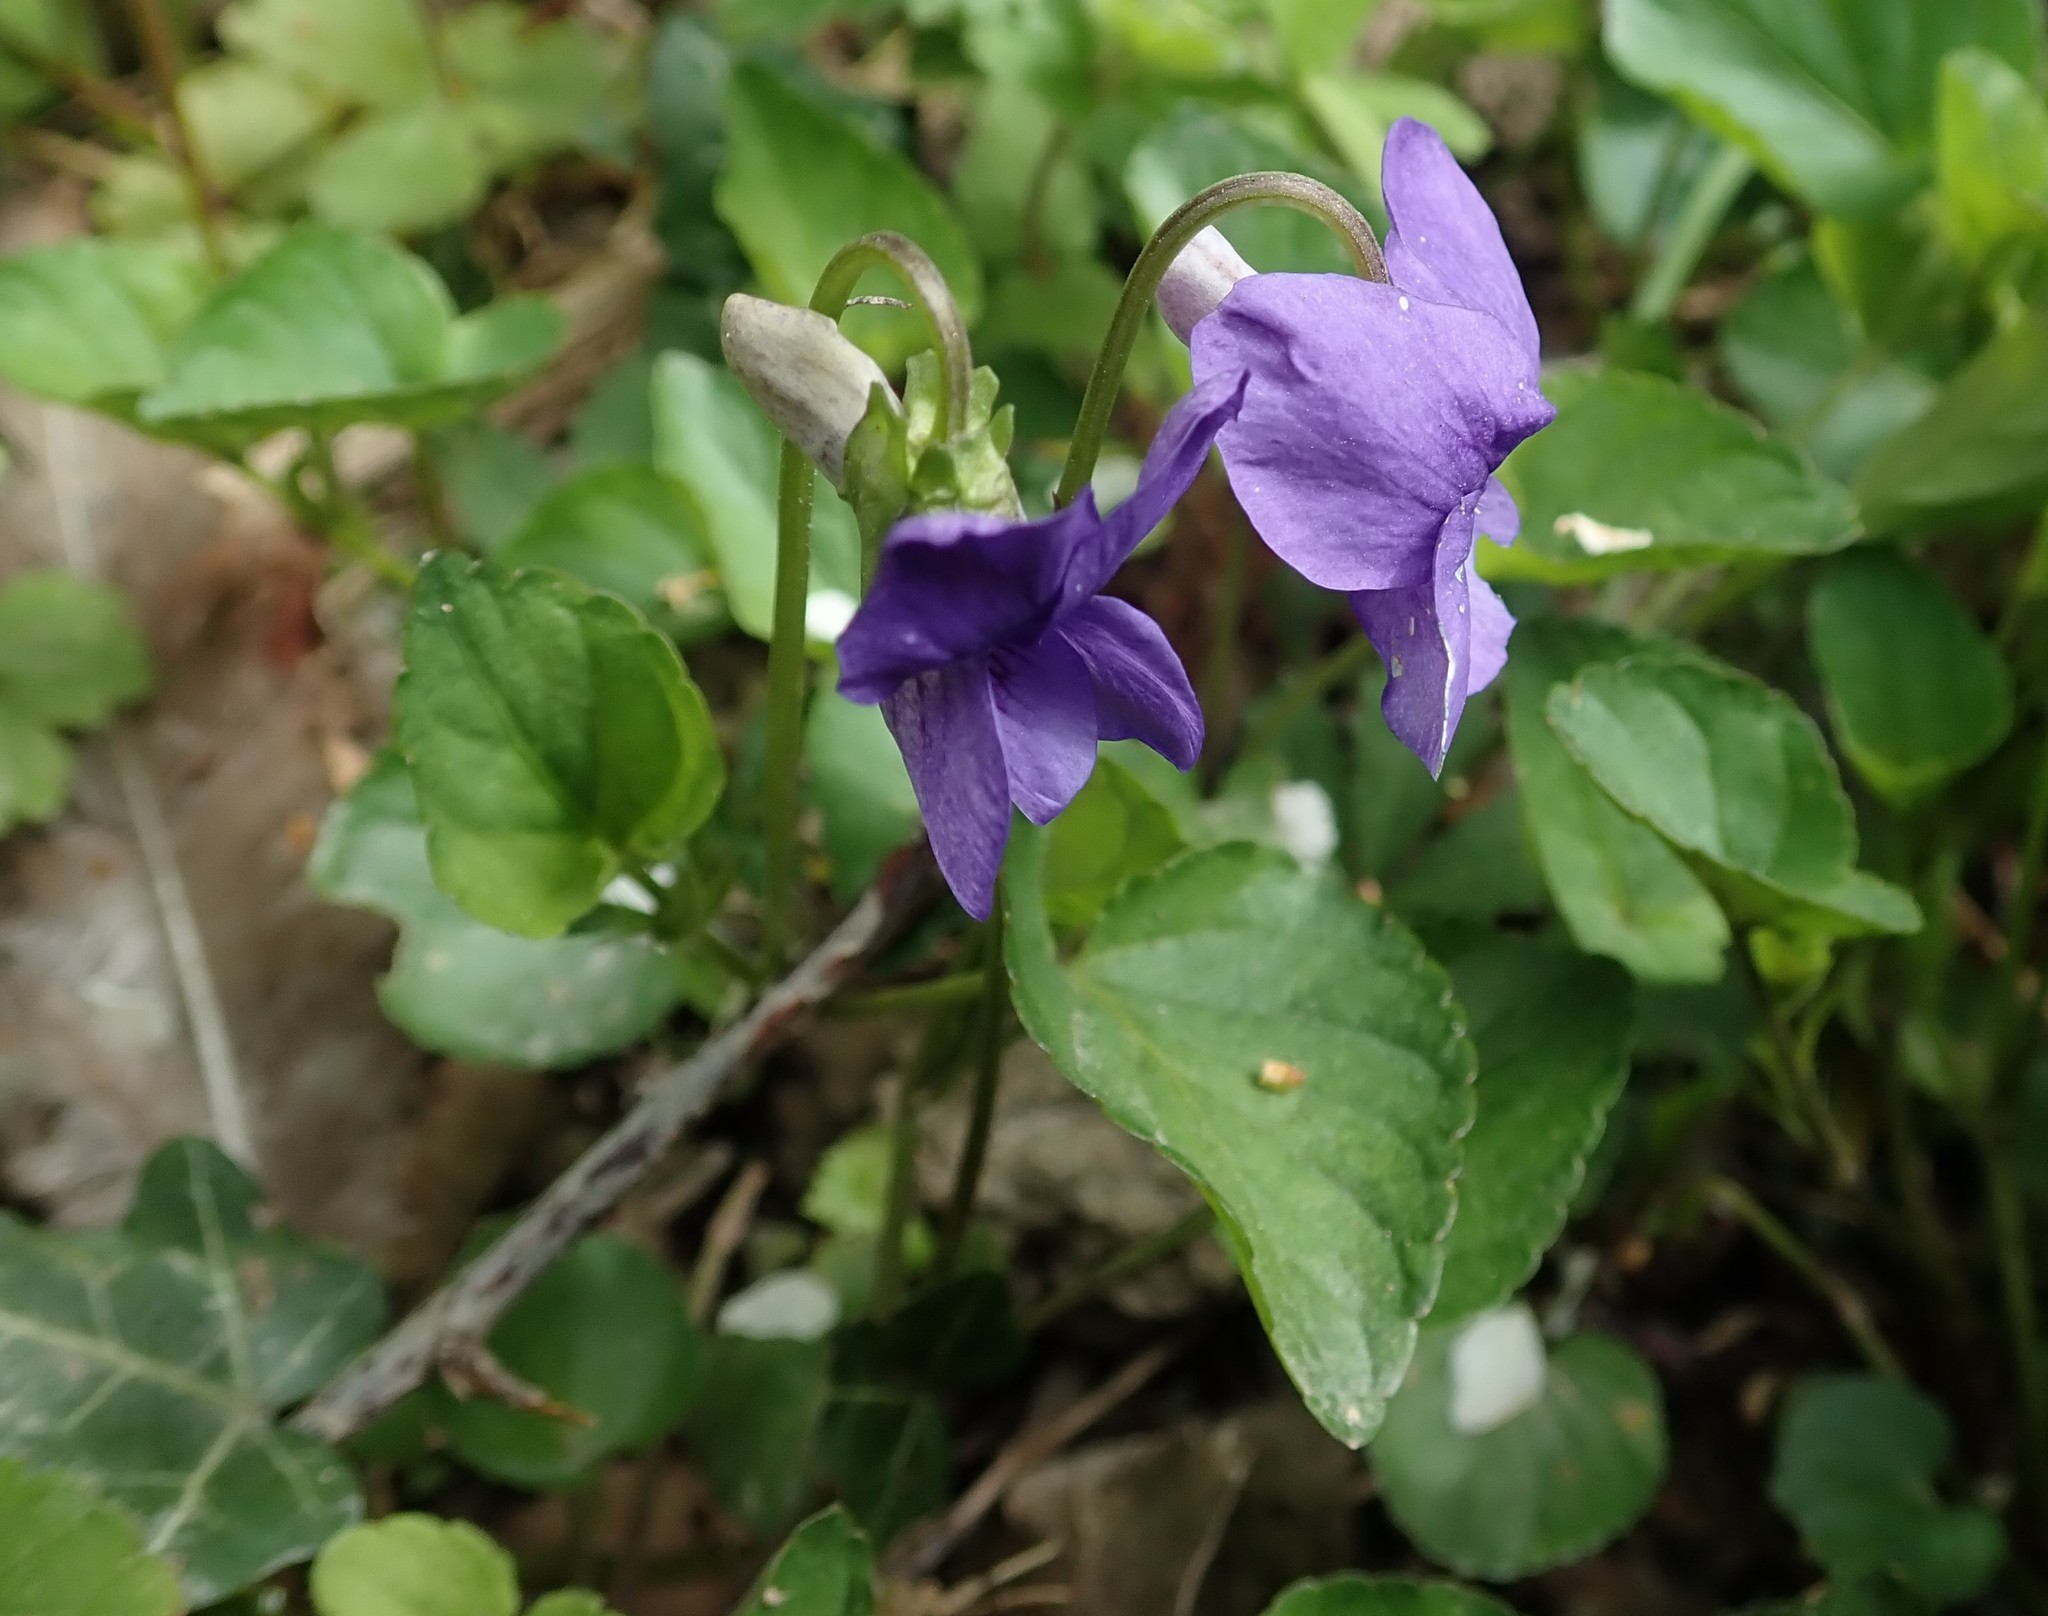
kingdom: Plantae
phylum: Tracheophyta
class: Magnoliopsida
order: Malpighiales
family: Violaceae
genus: Viola
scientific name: Viola riviniana
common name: Common dog-violet
